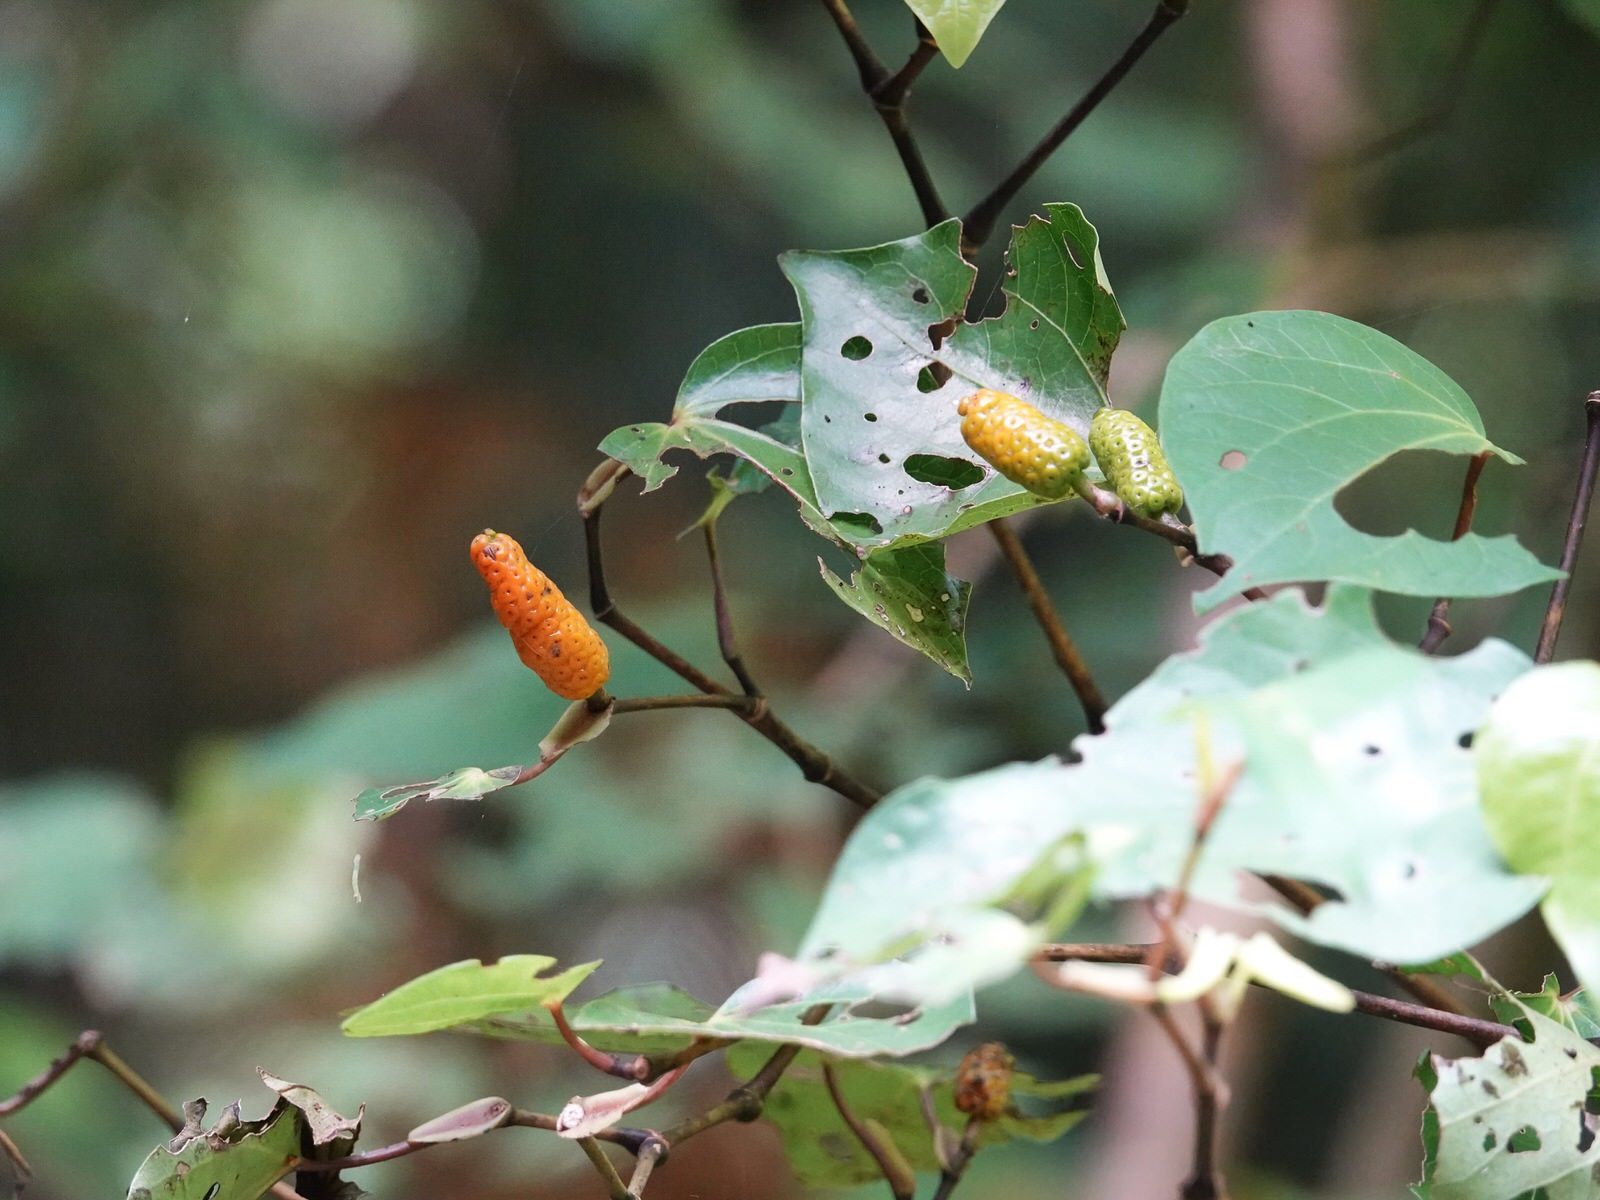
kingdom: Plantae
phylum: Tracheophyta
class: Magnoliopsida
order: Piperales
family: Piperaceae
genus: Macropiper
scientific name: Macropiper excelsum
